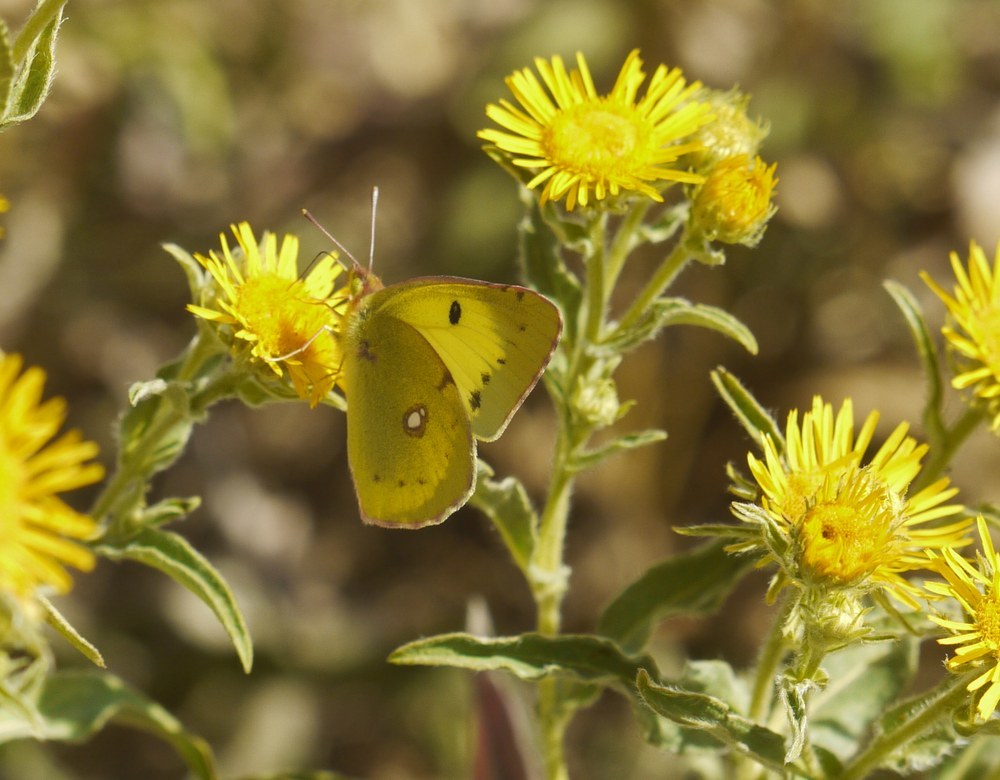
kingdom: Animalia
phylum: Arthropoda
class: Insecta
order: Lepidoptera
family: Pieridae
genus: Colias
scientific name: Colias erate
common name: Eastern pale clouded yellow
